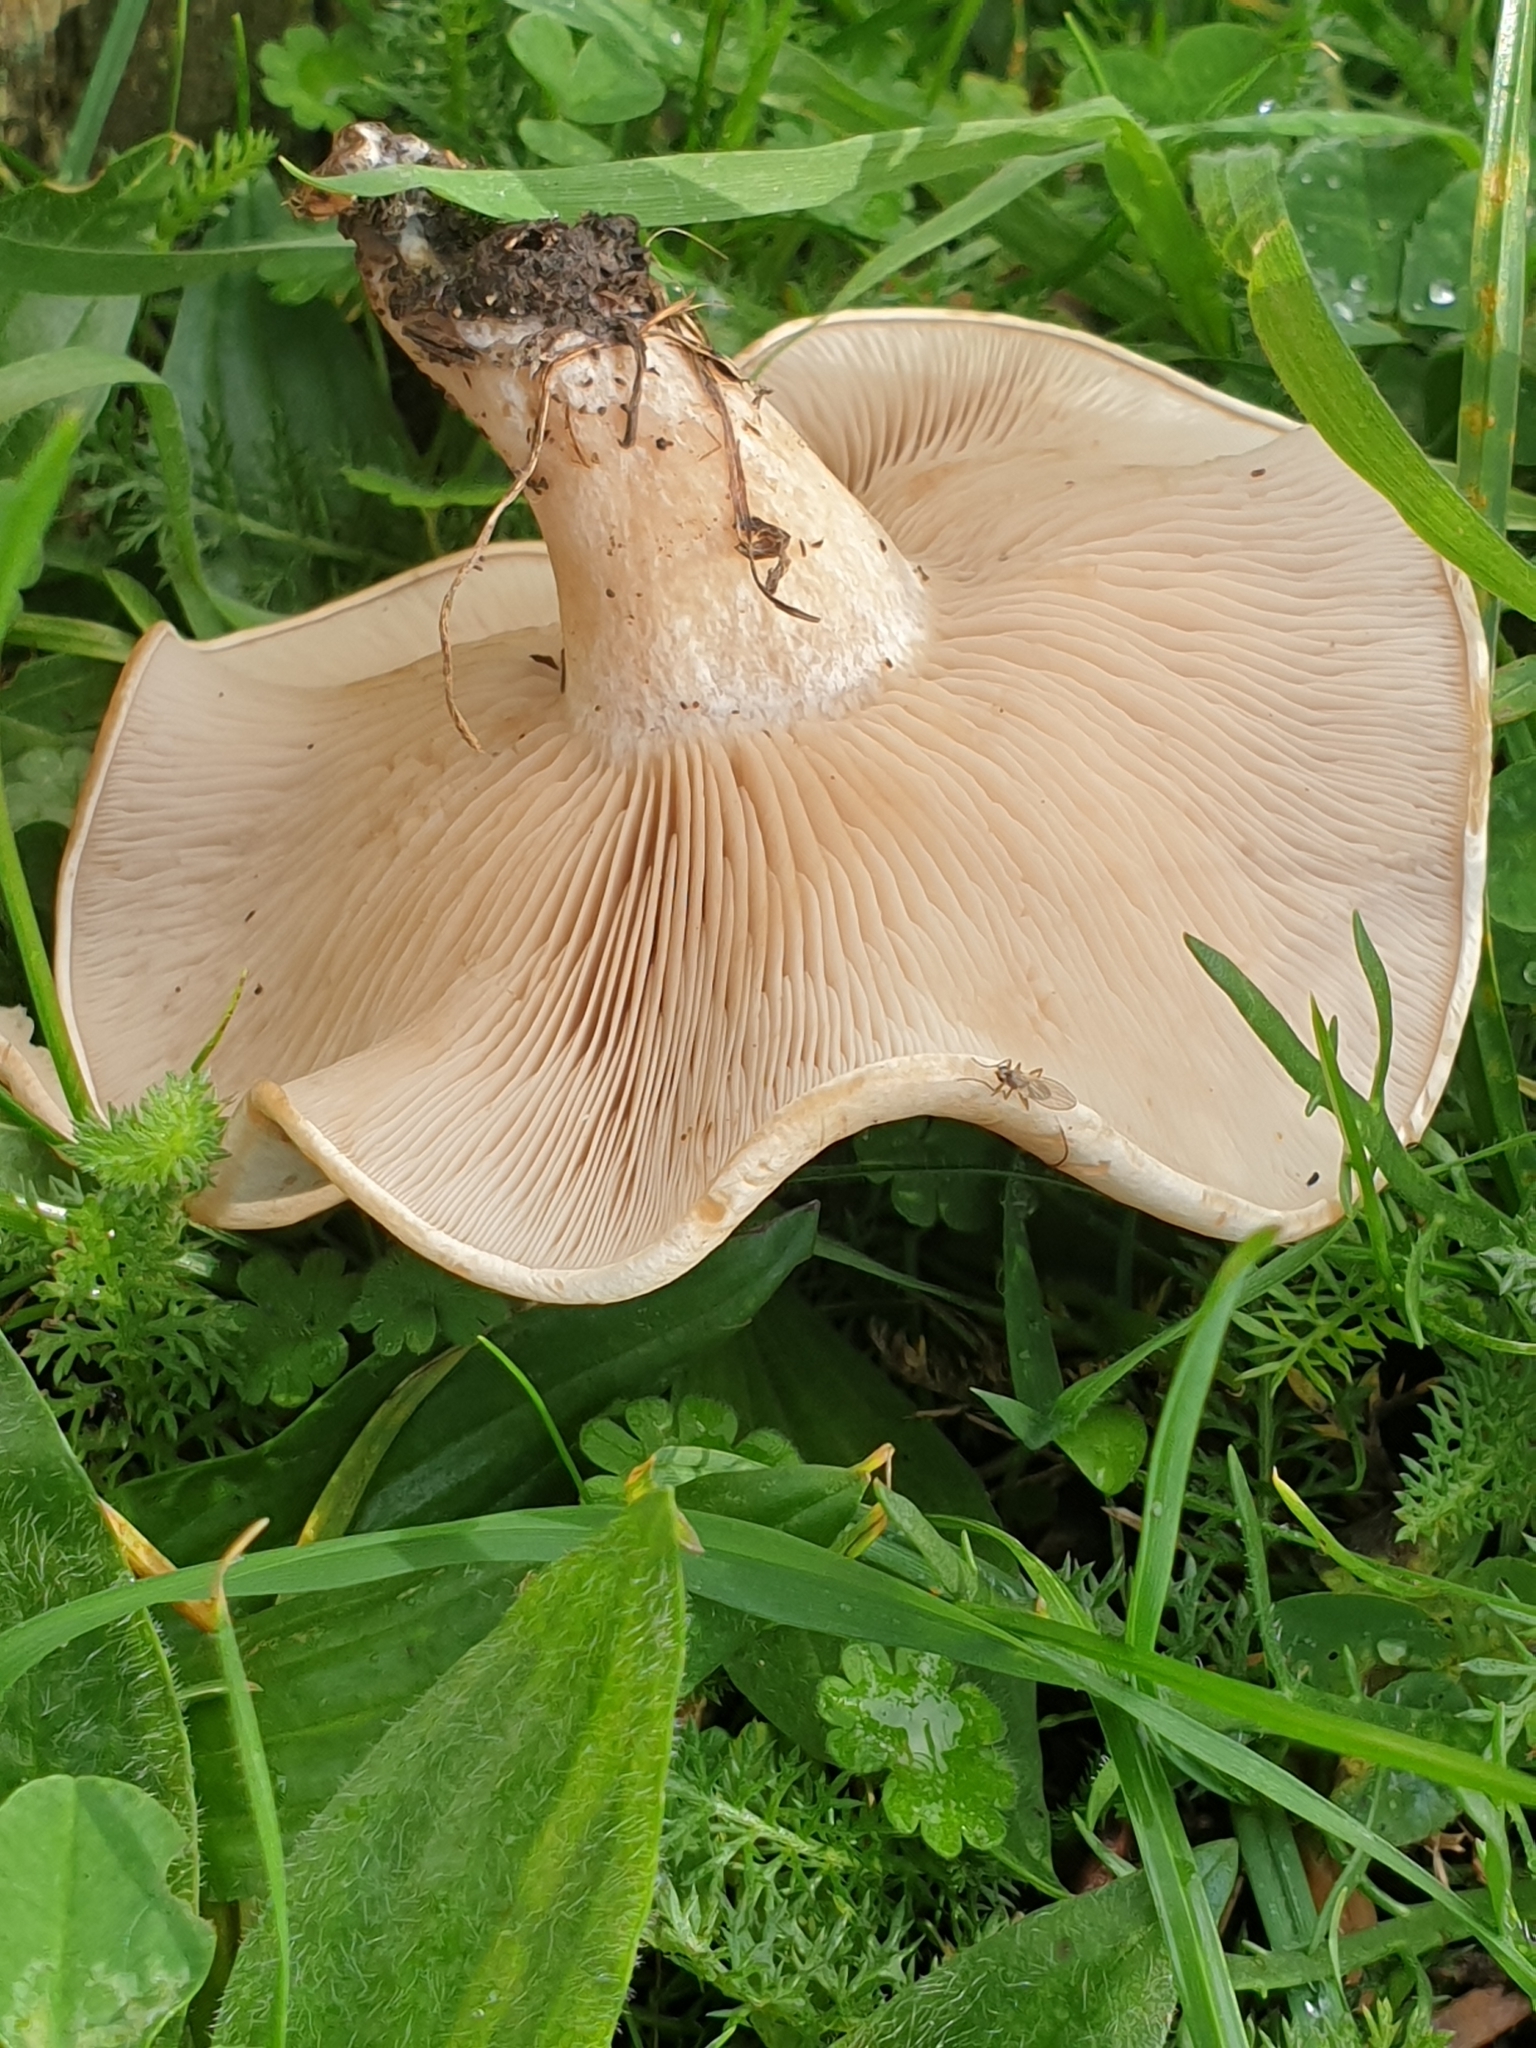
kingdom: Fungi
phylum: Basidiomycota
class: Agaricomycetes
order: Agaricales
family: Tricholomataceae
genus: Lepista
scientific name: Lepista luscina
